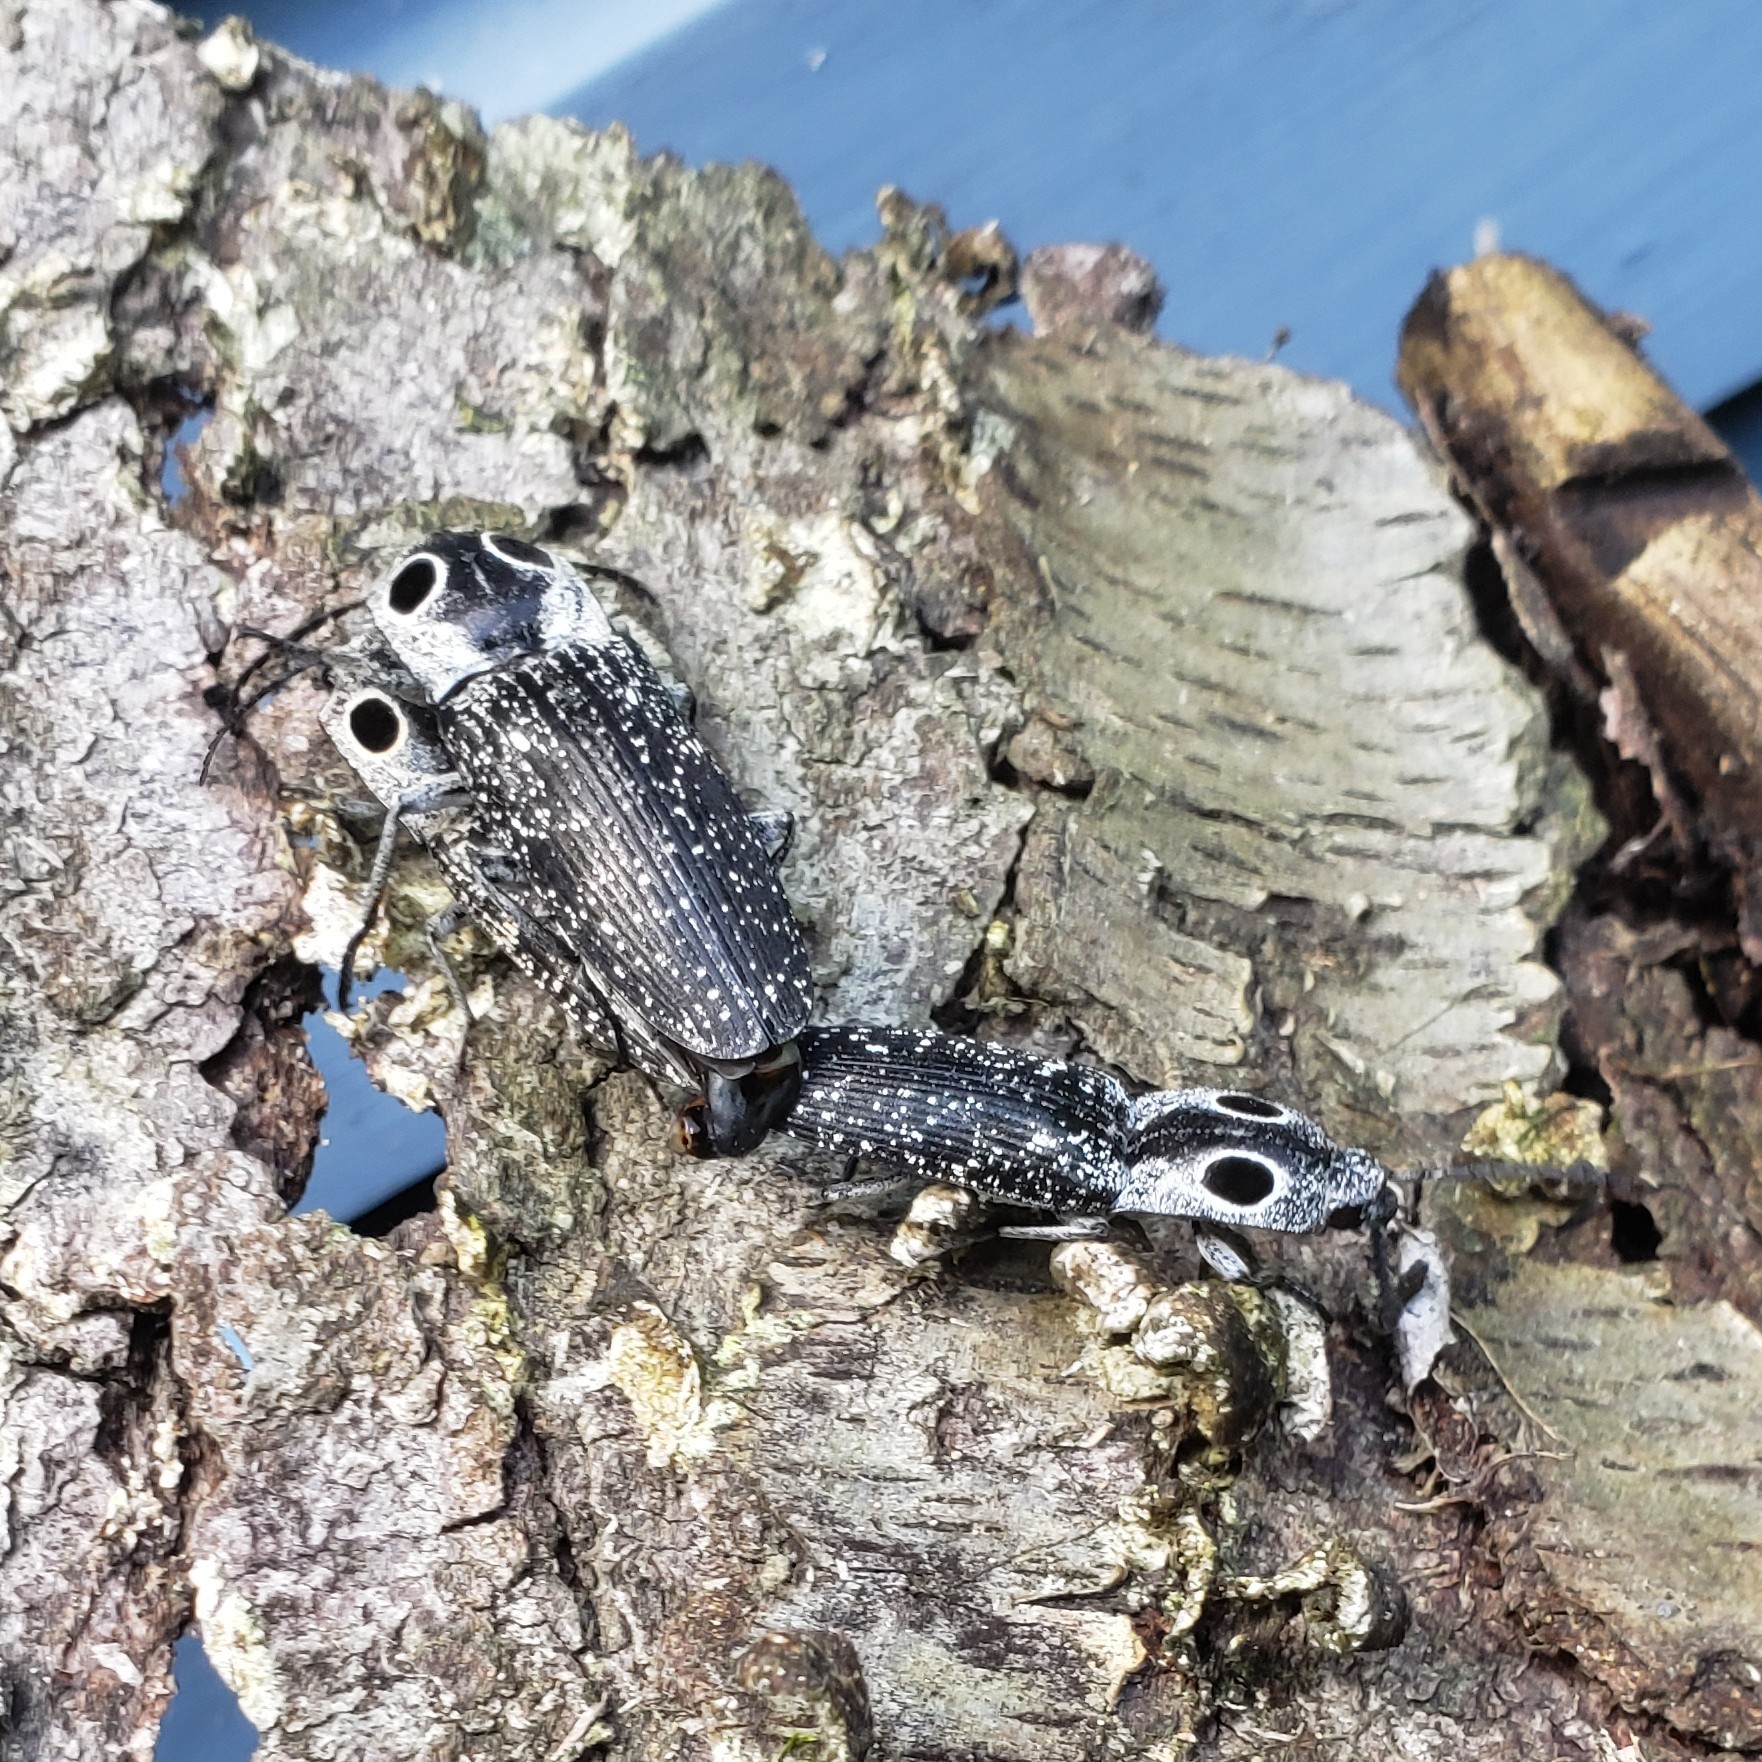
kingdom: Animalia
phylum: Arthropoda
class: Insecta
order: Coleoptera
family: Elateridae
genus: Alaus
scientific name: Alaus oculatus
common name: Eastern eyed click beetle
